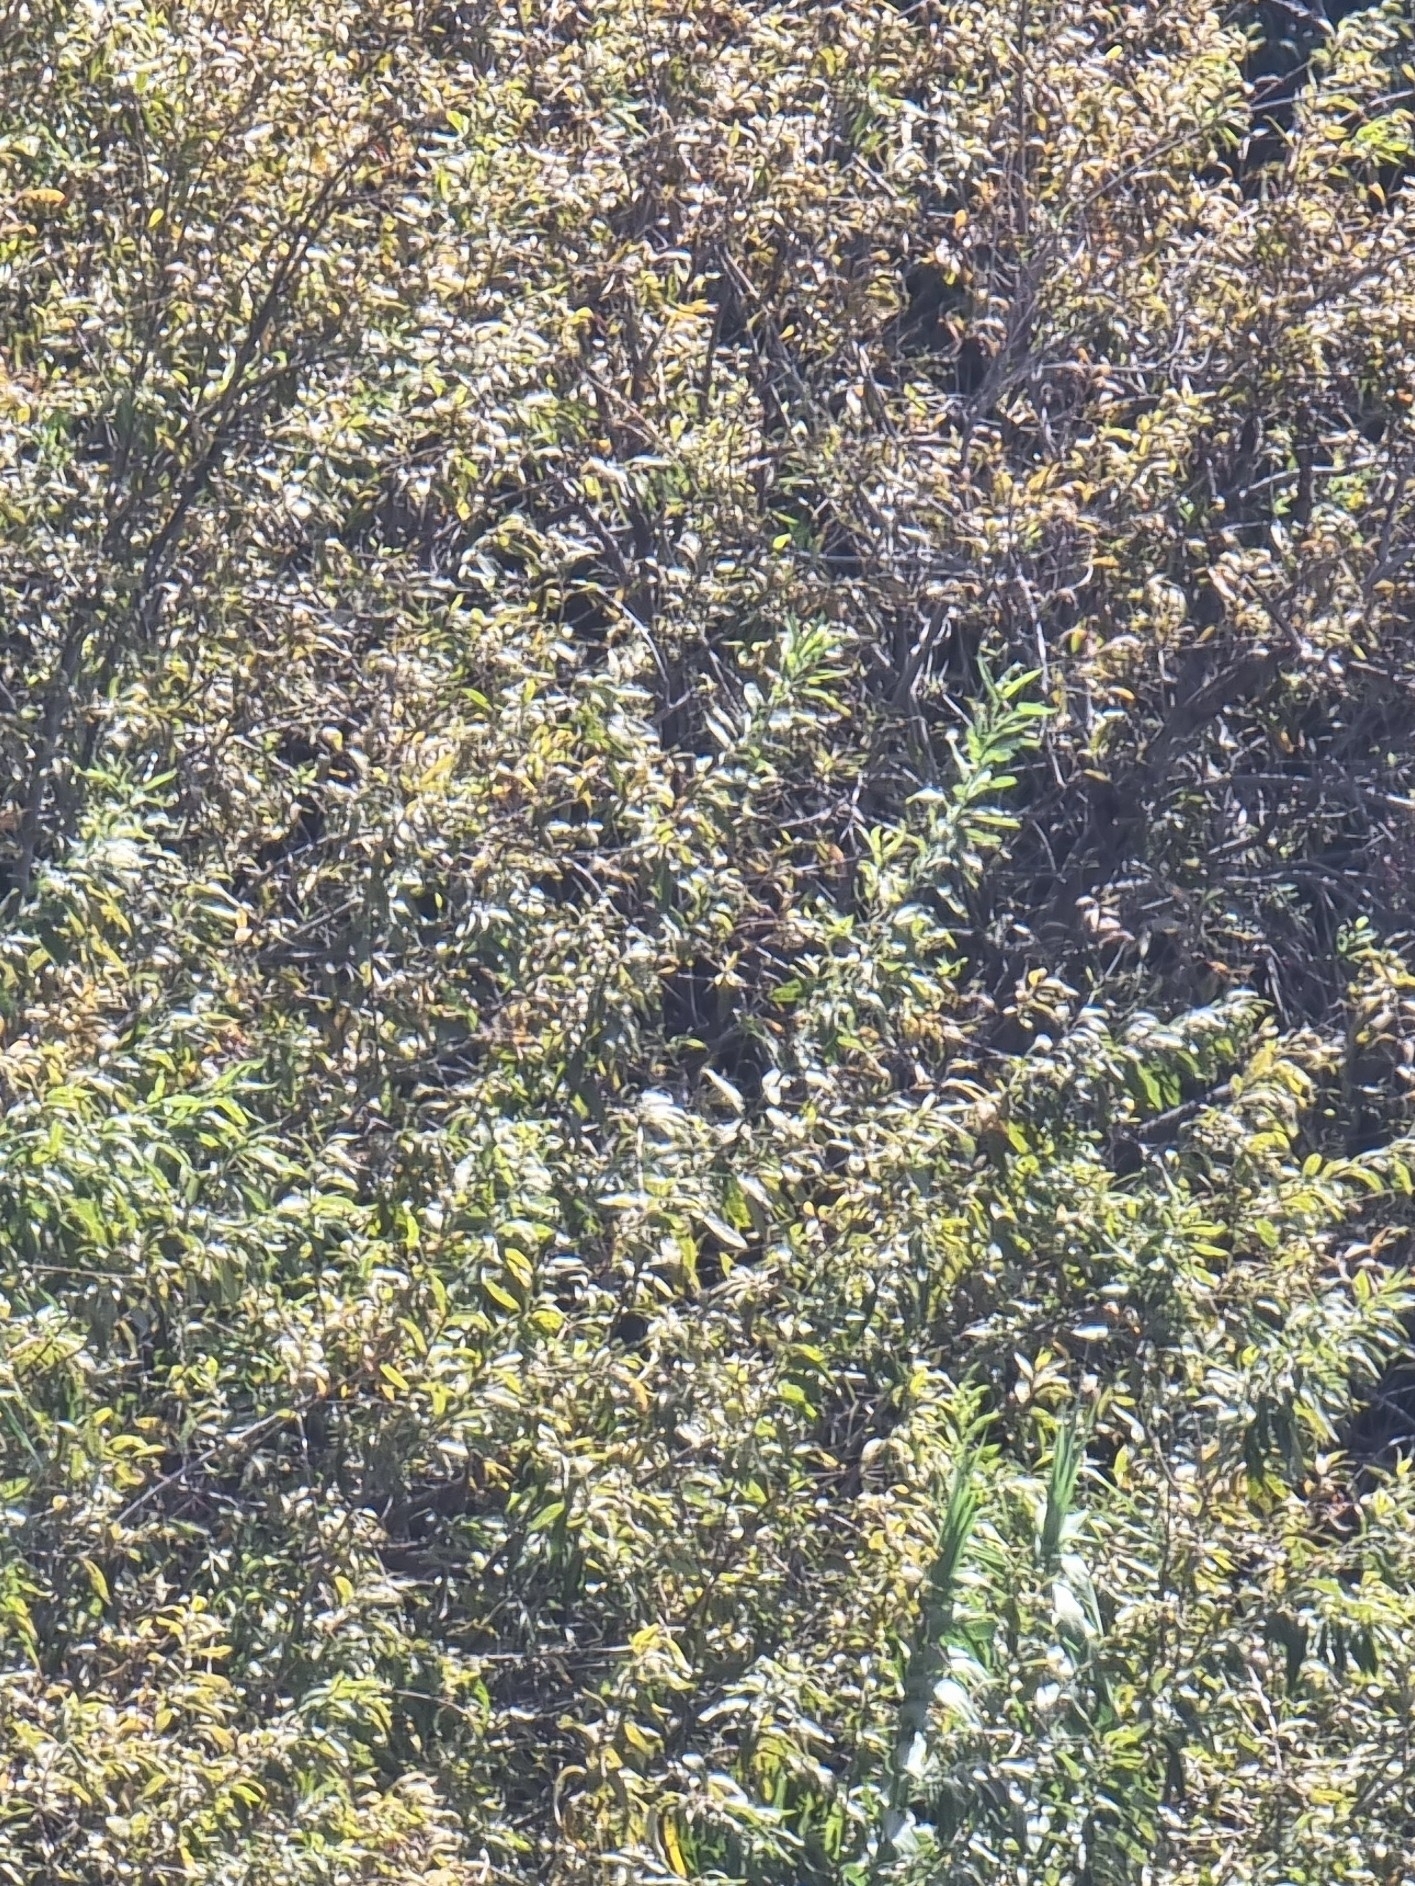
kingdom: Plantae
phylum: Tracheophyta
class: Magnoliopsida
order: Malpighiales
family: Salicaceae
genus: Salix
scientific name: Salix canariensis
